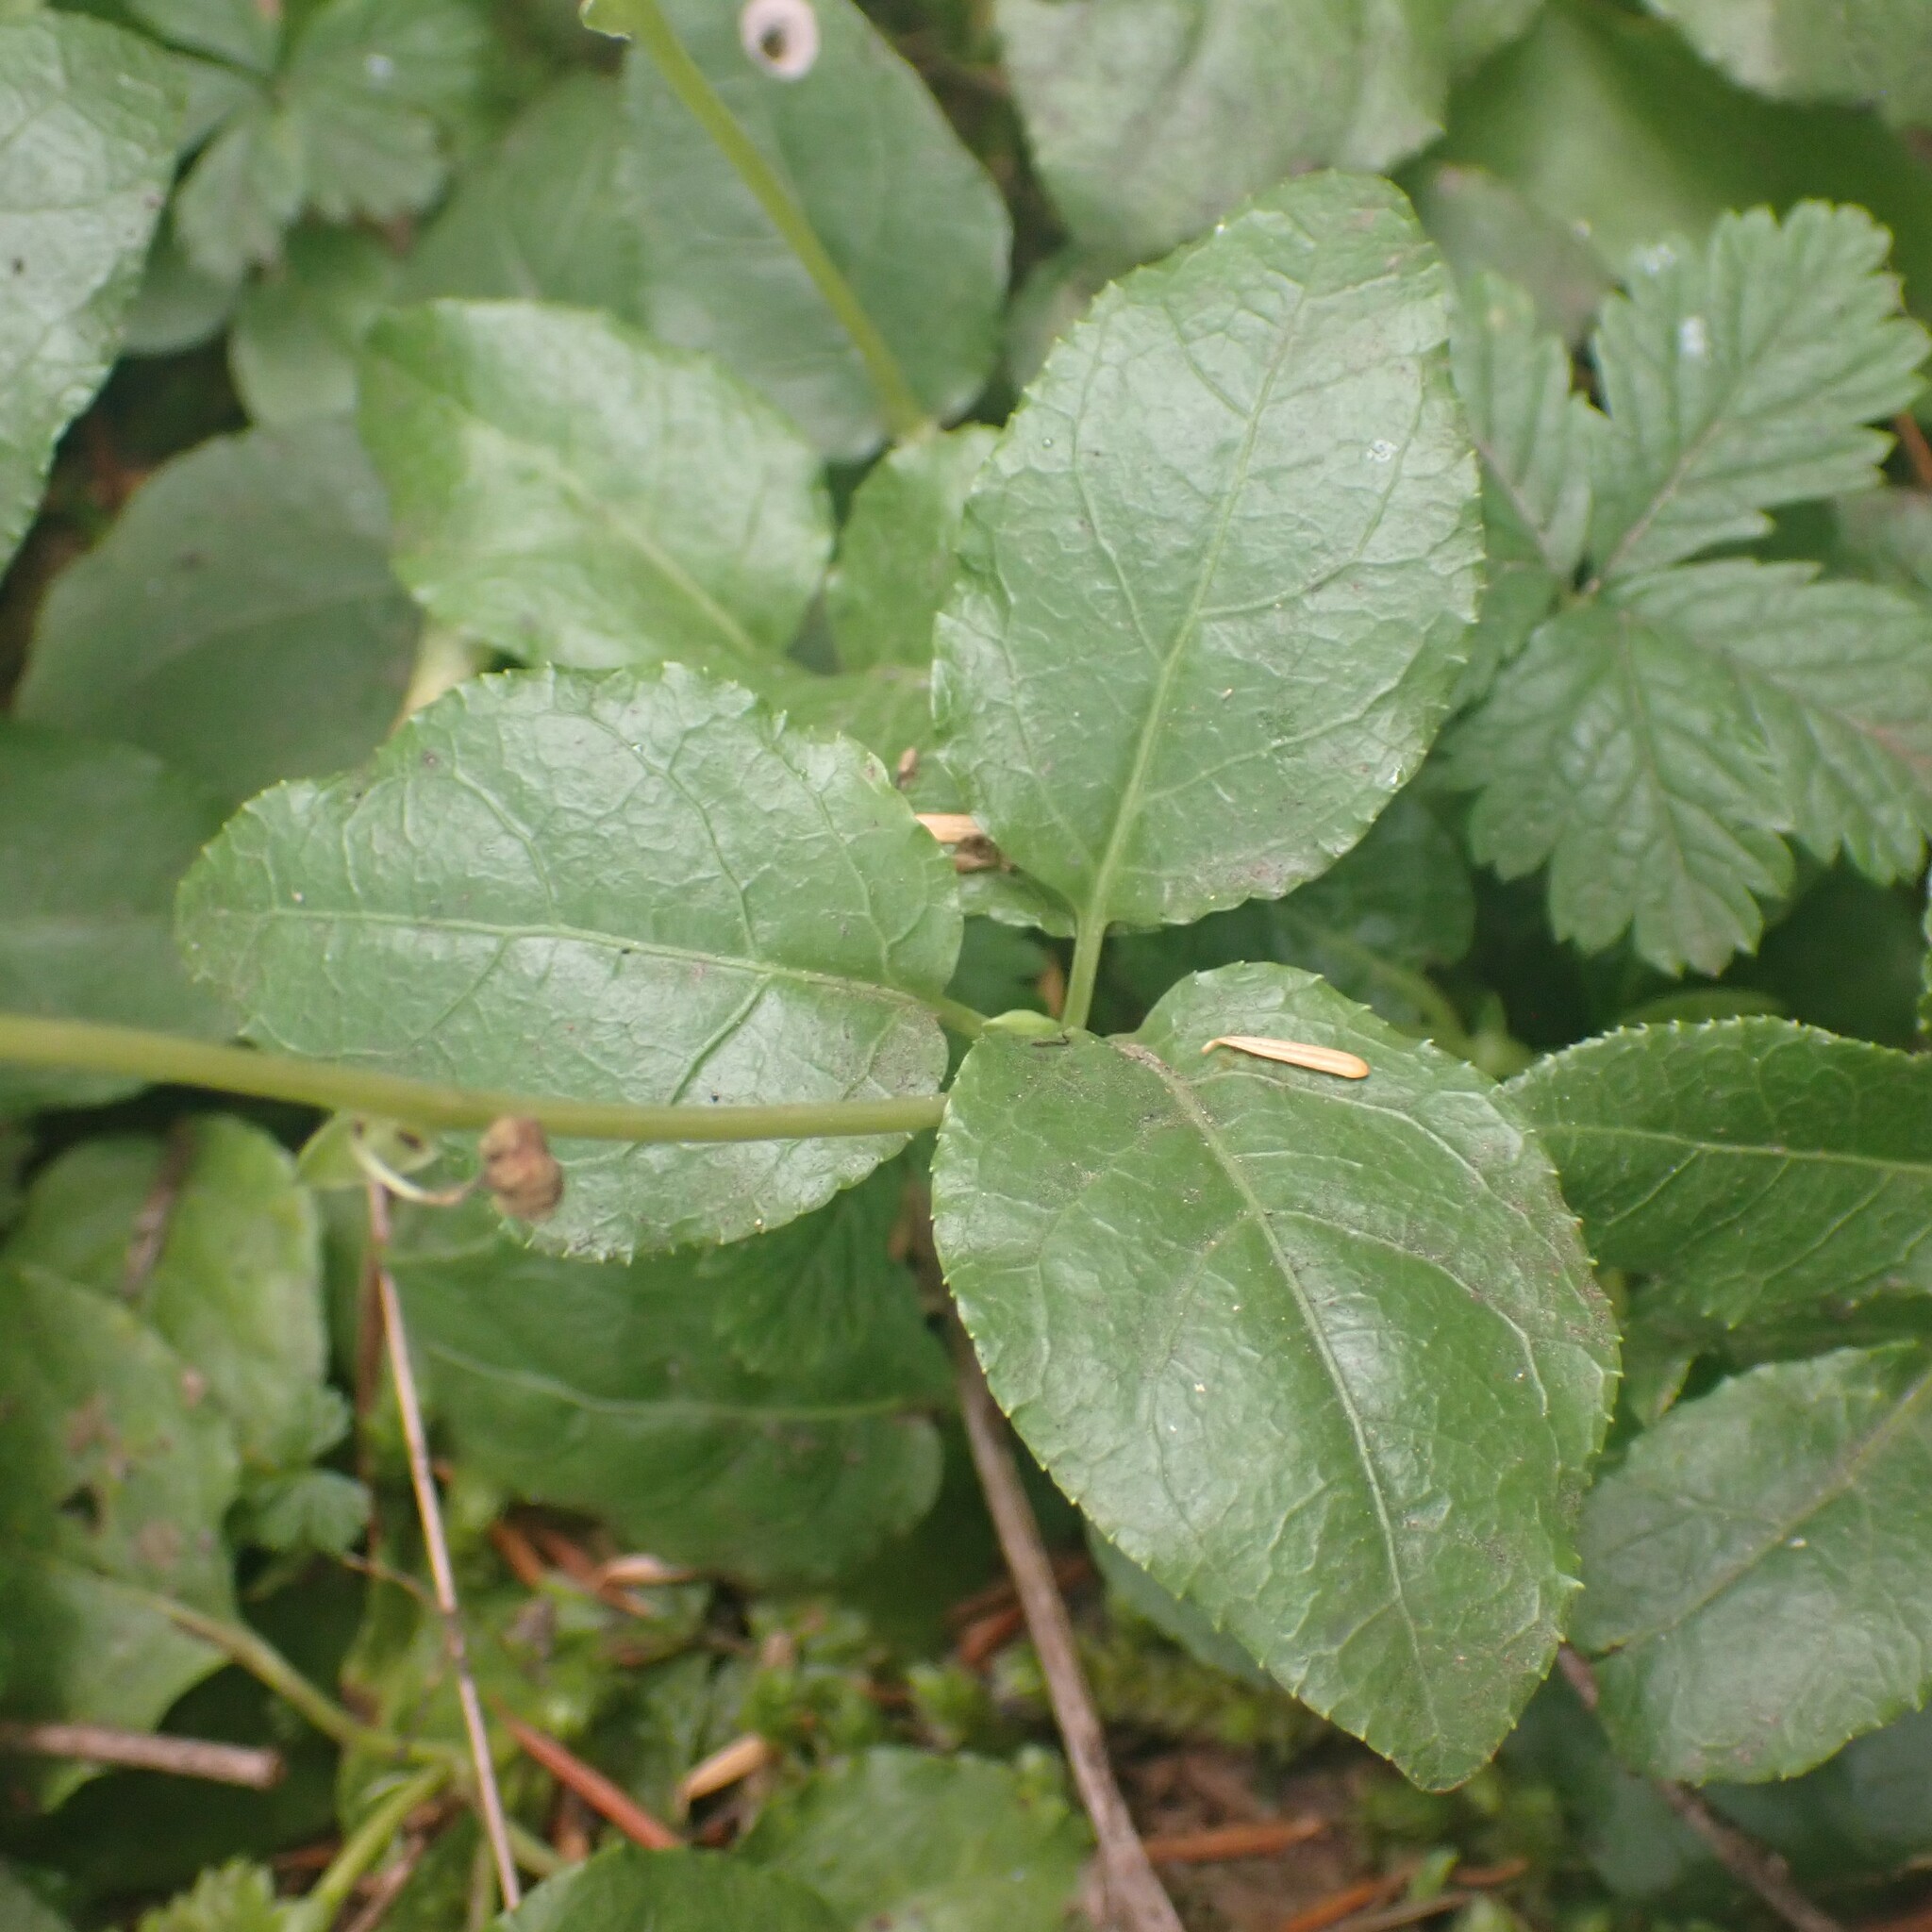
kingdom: Plantae
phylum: Tracheophyta
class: Magnoliopsida
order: Ericales
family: Ericaceae
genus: Orthilia
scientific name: Orthilia secunda
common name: One-sided orthilia
